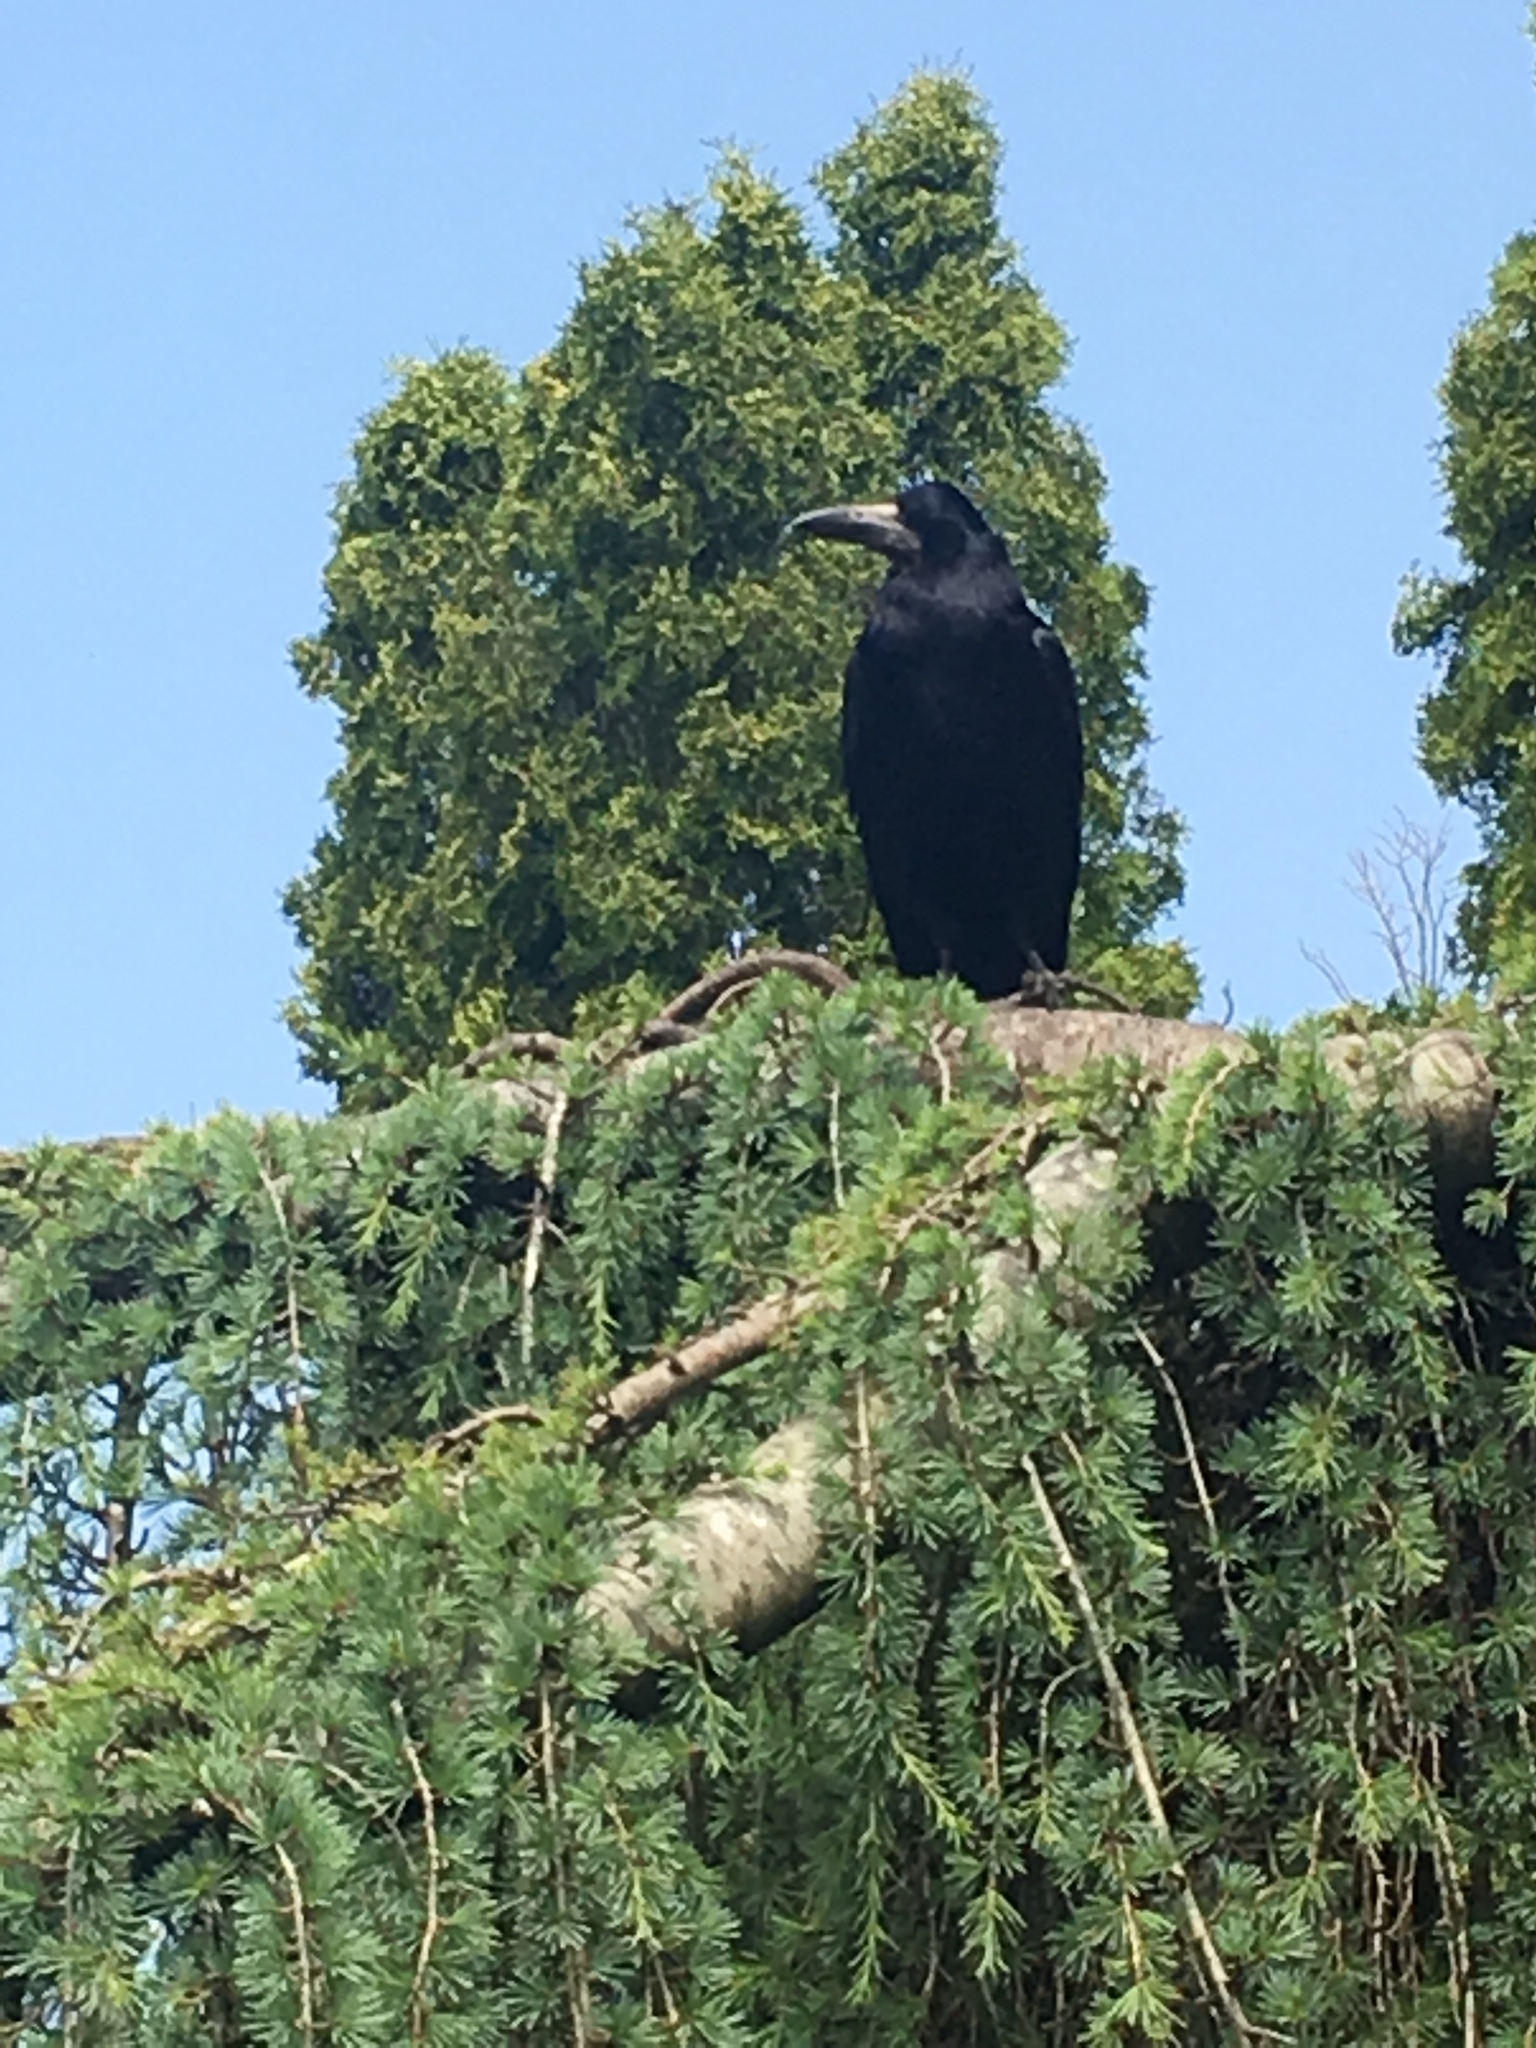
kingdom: Animalia
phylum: Chordata
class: Aves
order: Passeriformes
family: Corvidae
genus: Corvus
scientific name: Corvus frugilegus
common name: Rook
